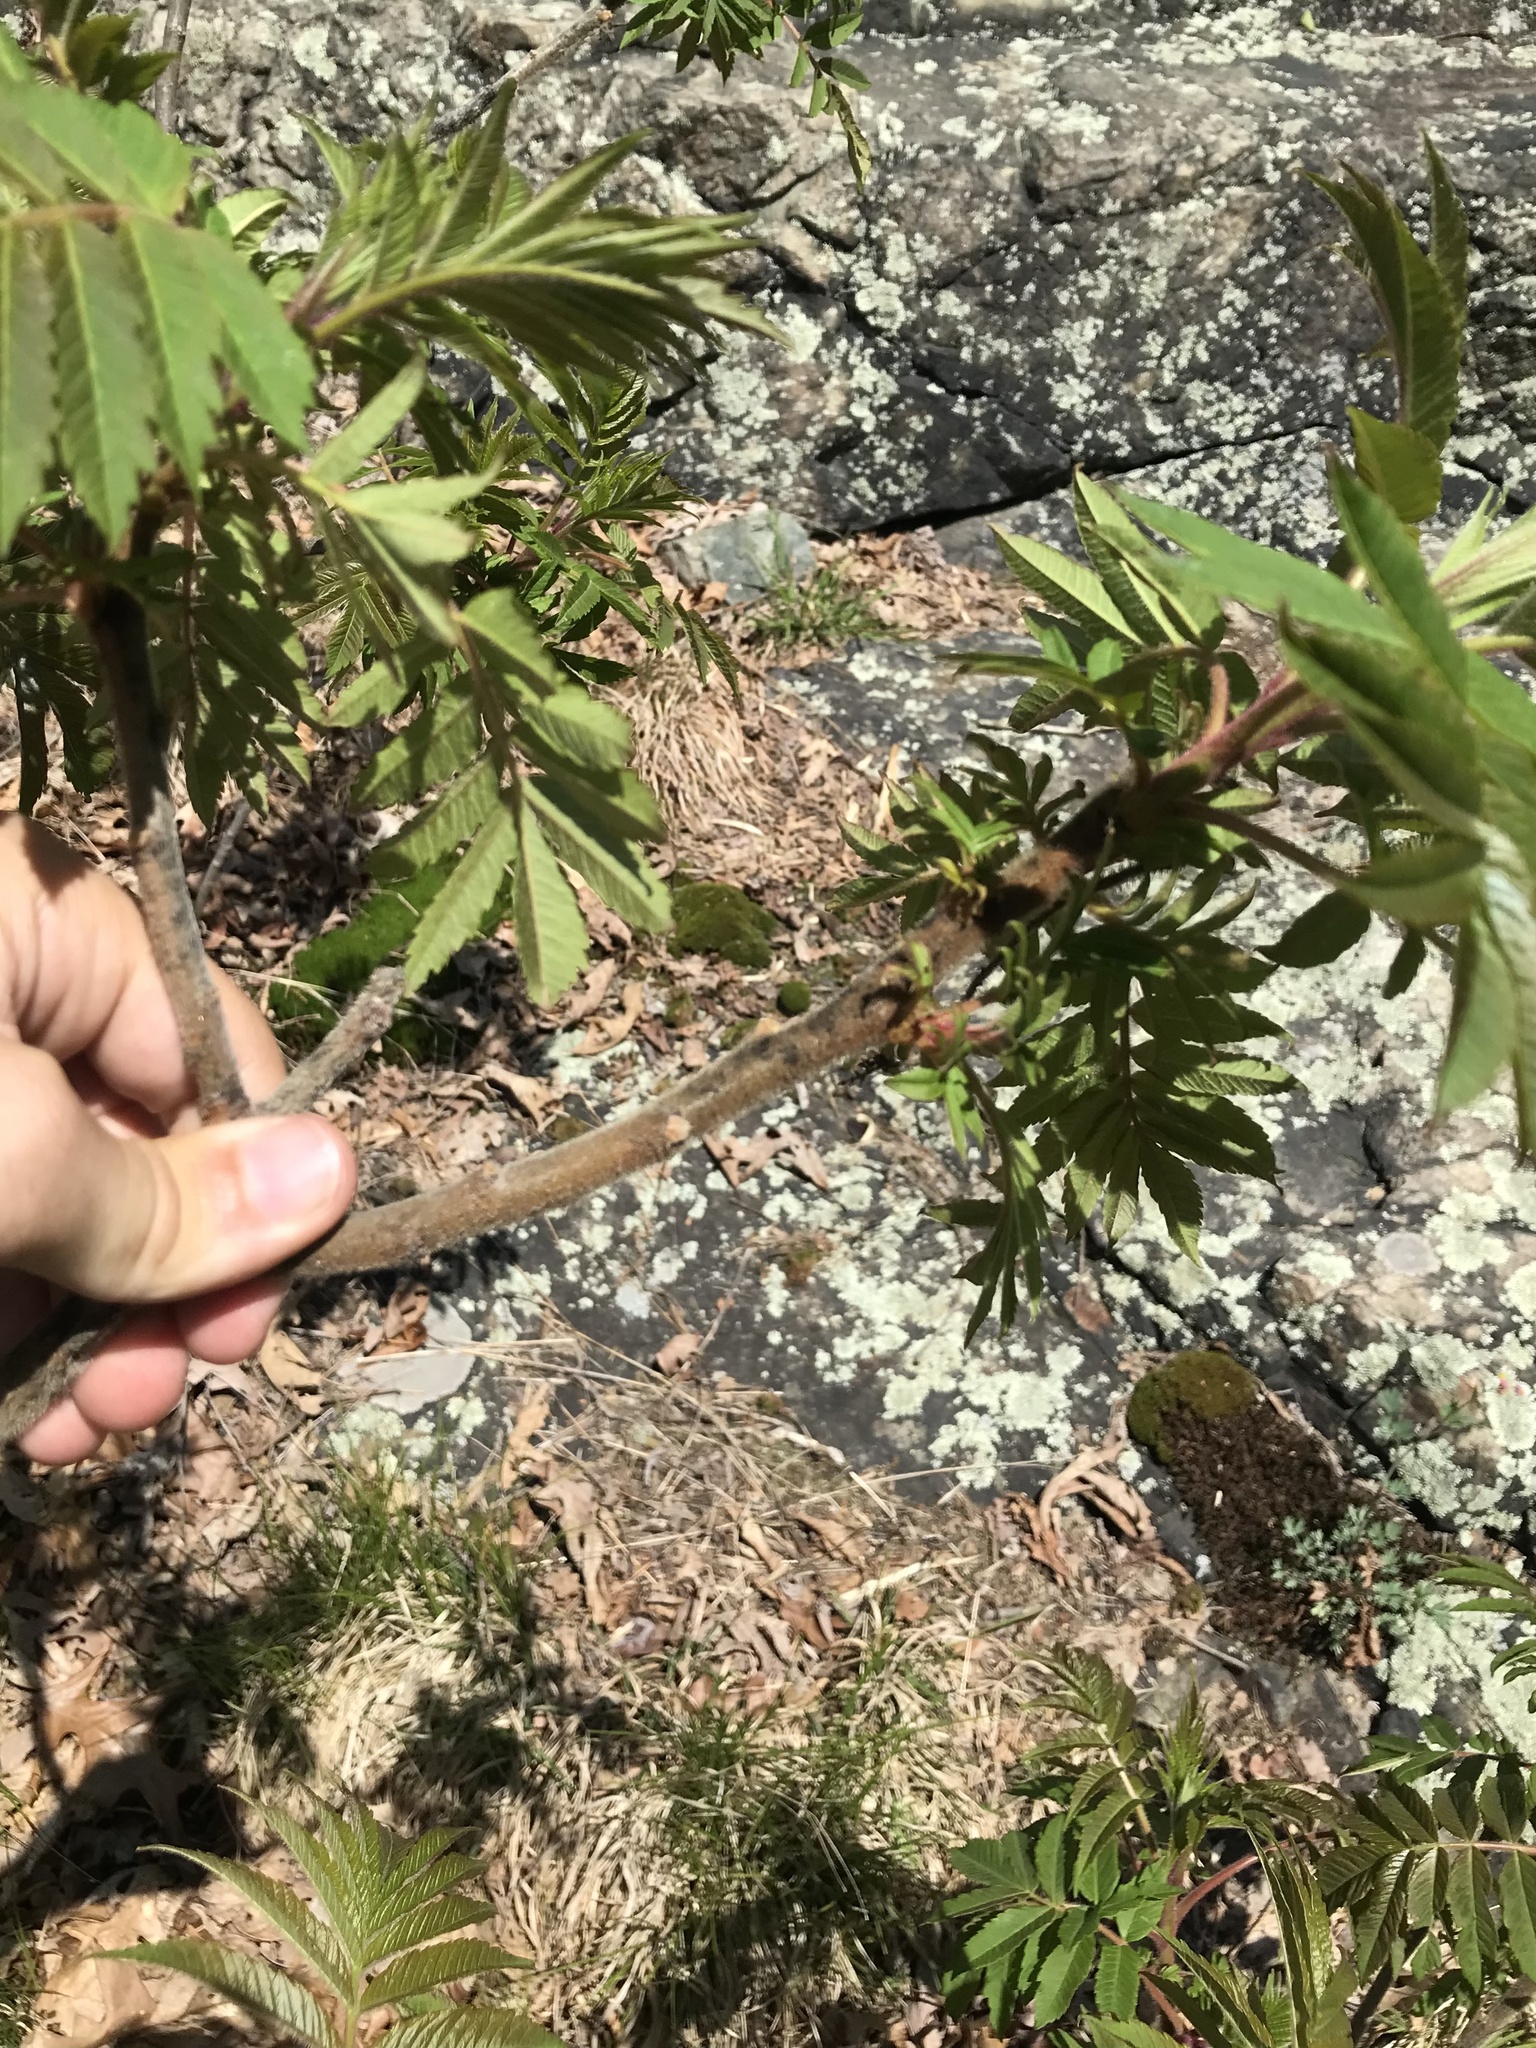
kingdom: Plantae
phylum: Tracheophyta
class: Magnoliopsida
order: Sapindales
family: Anacardiaceae
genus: Rhus
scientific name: Rhus typhina
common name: Staghorn sumac
